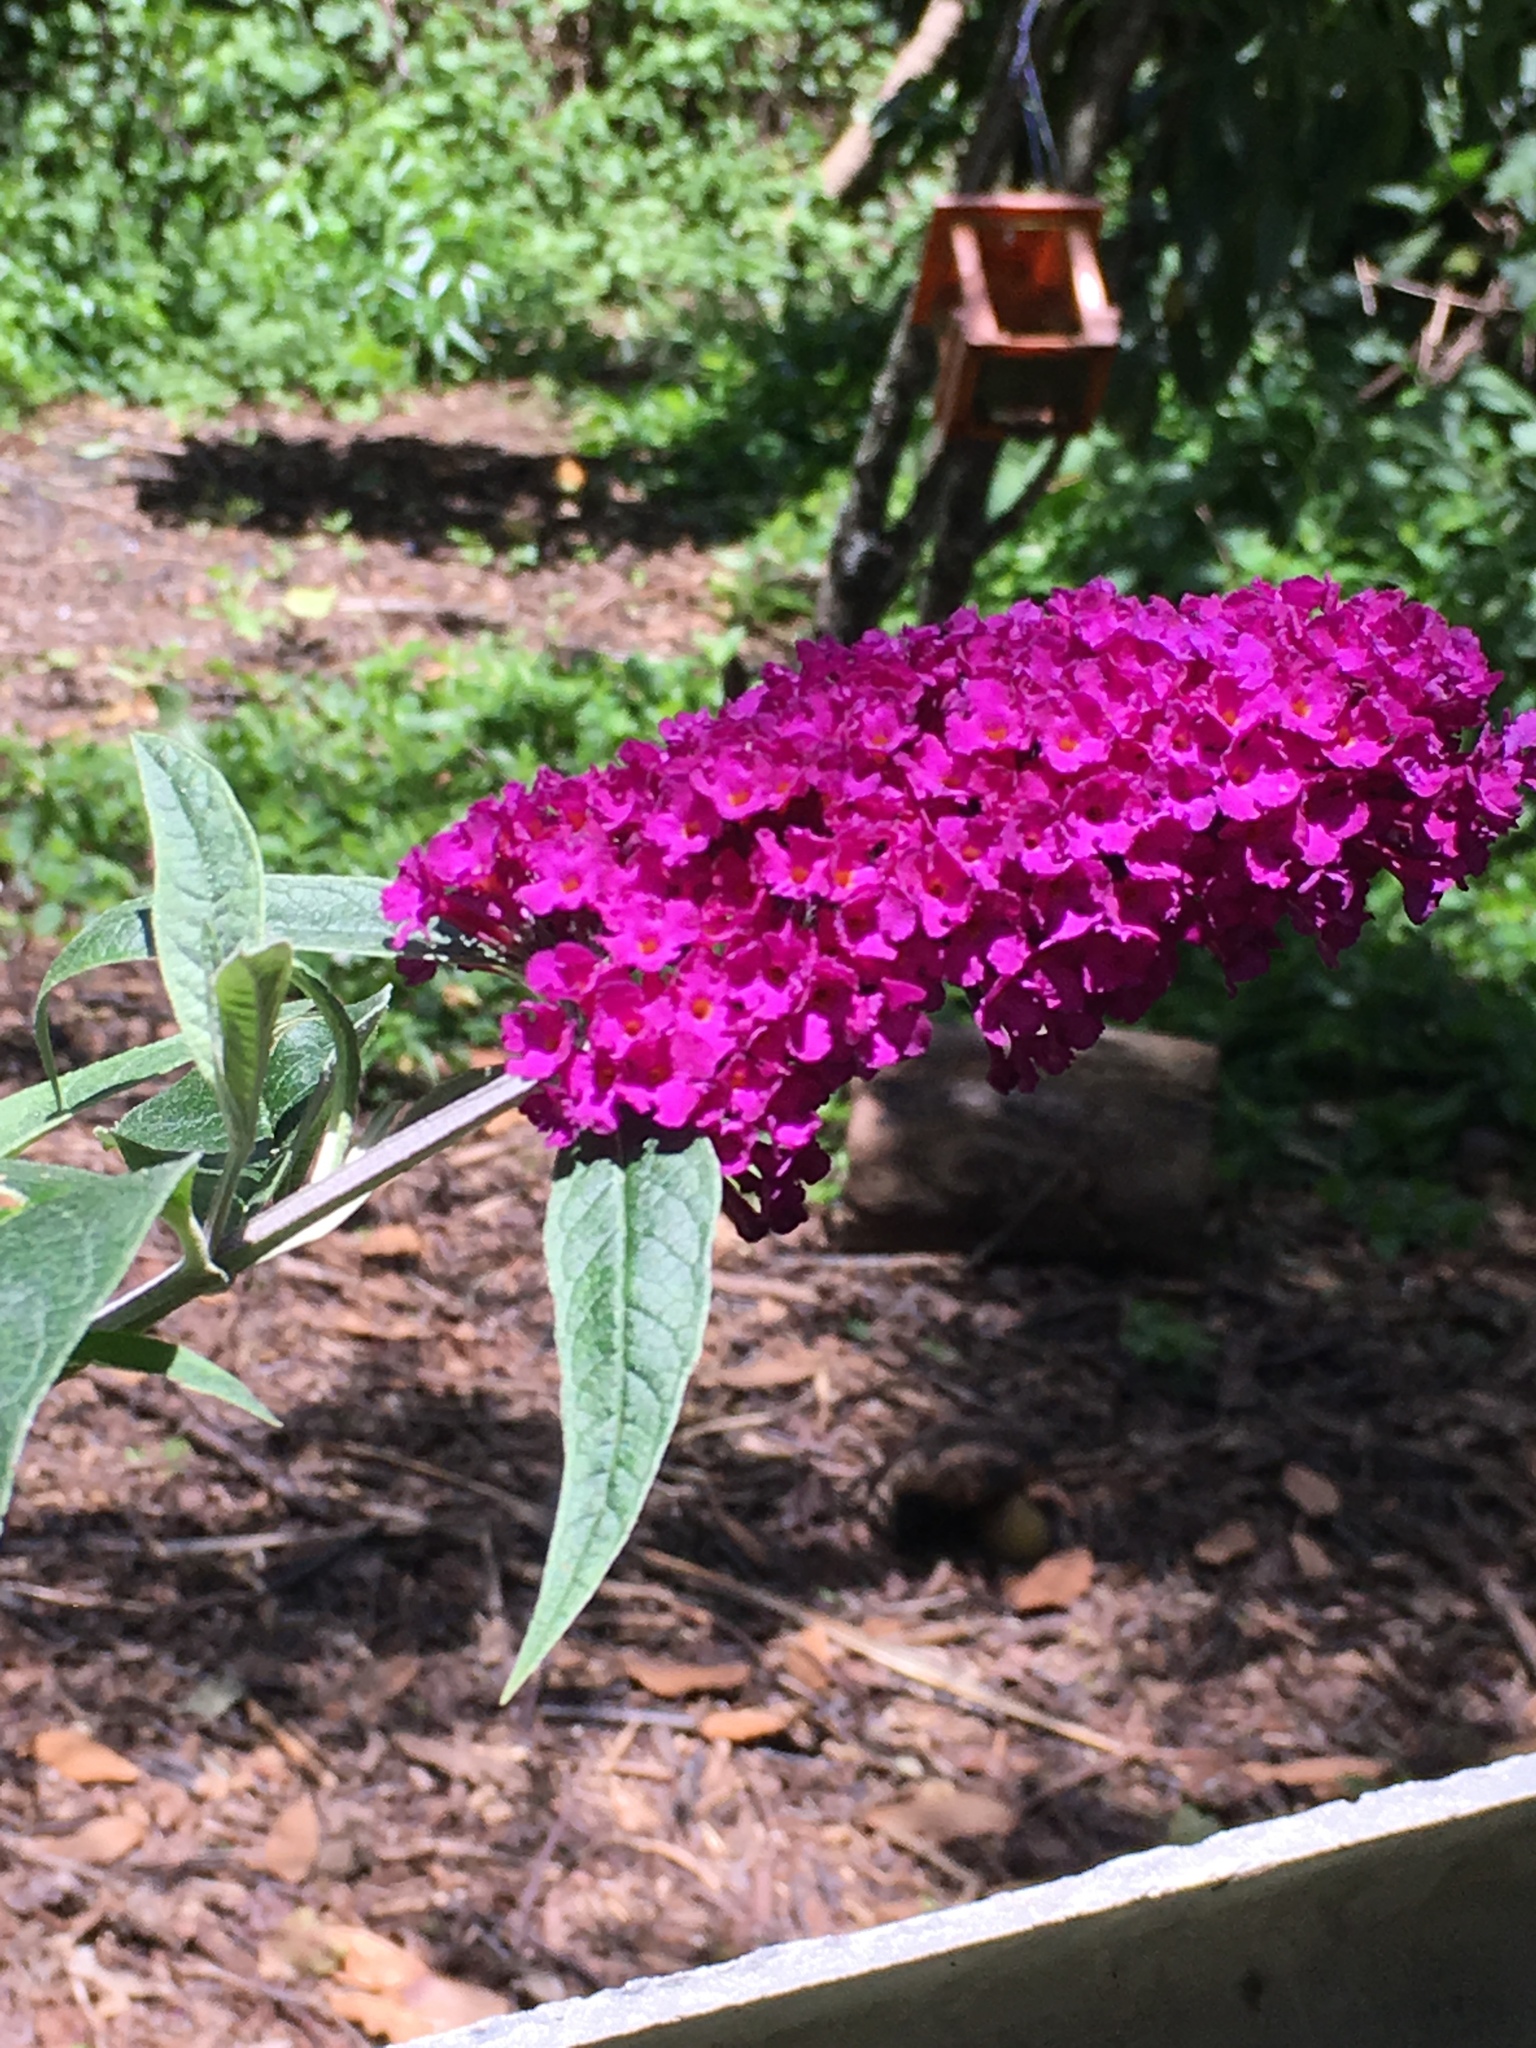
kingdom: Plantae
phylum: Tracheophyta
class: Magnoliopsida
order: Lamiales
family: Scrophulariaceae
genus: Buddleja
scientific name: Buddleja davidii
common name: Butterfly-bush
